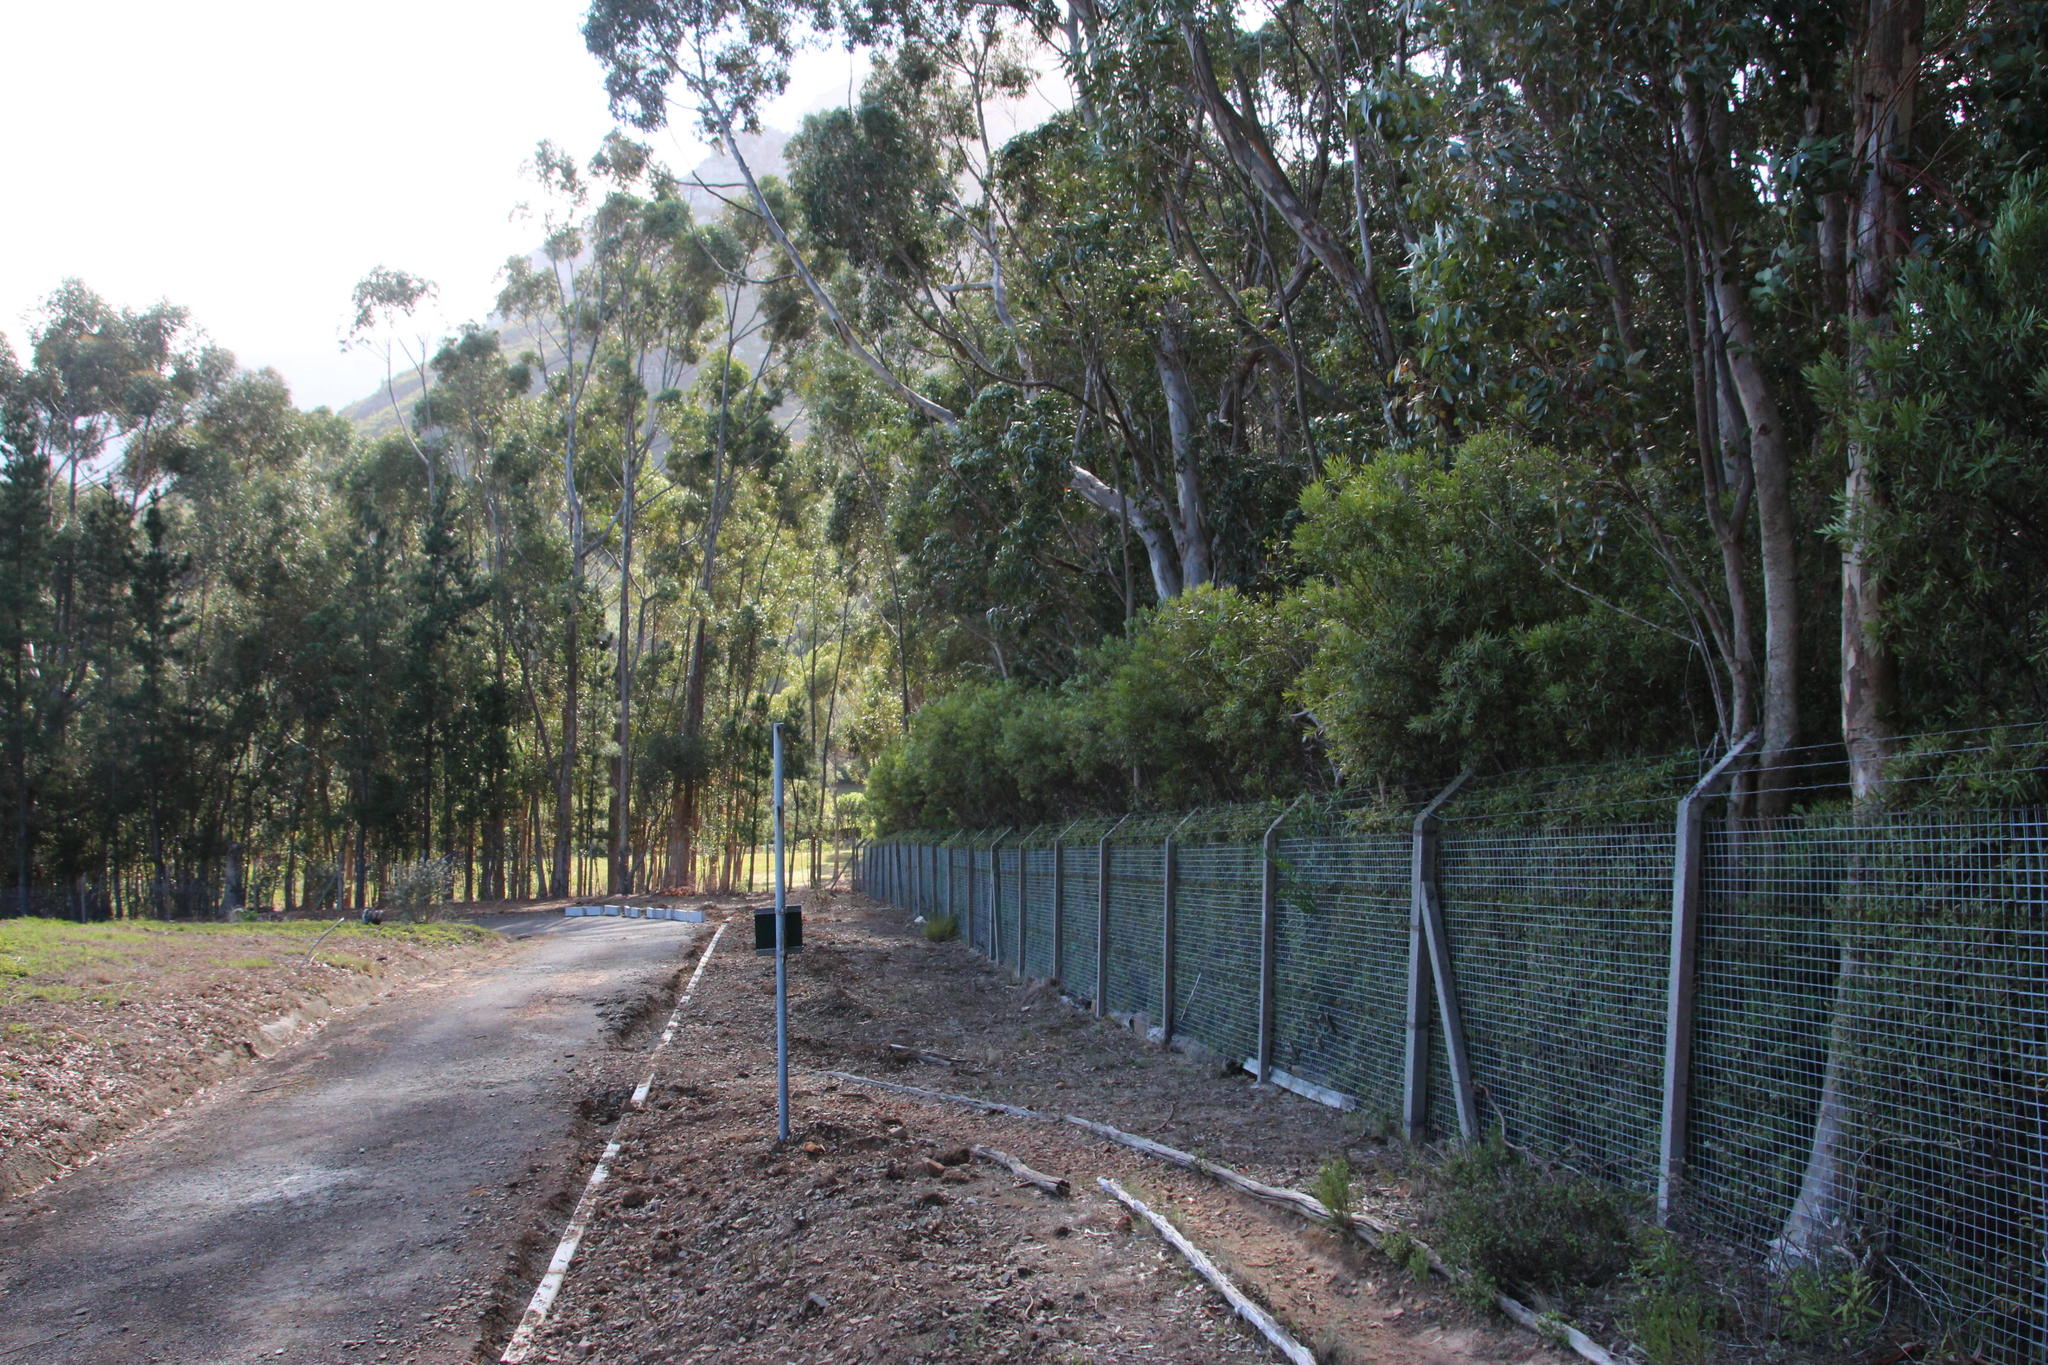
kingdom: Plantae
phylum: Tracheophyta
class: Magnoliopsida
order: Proteales
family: Proteaceae
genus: Hakea
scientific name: Hakea salicifolia
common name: Willow hakea
